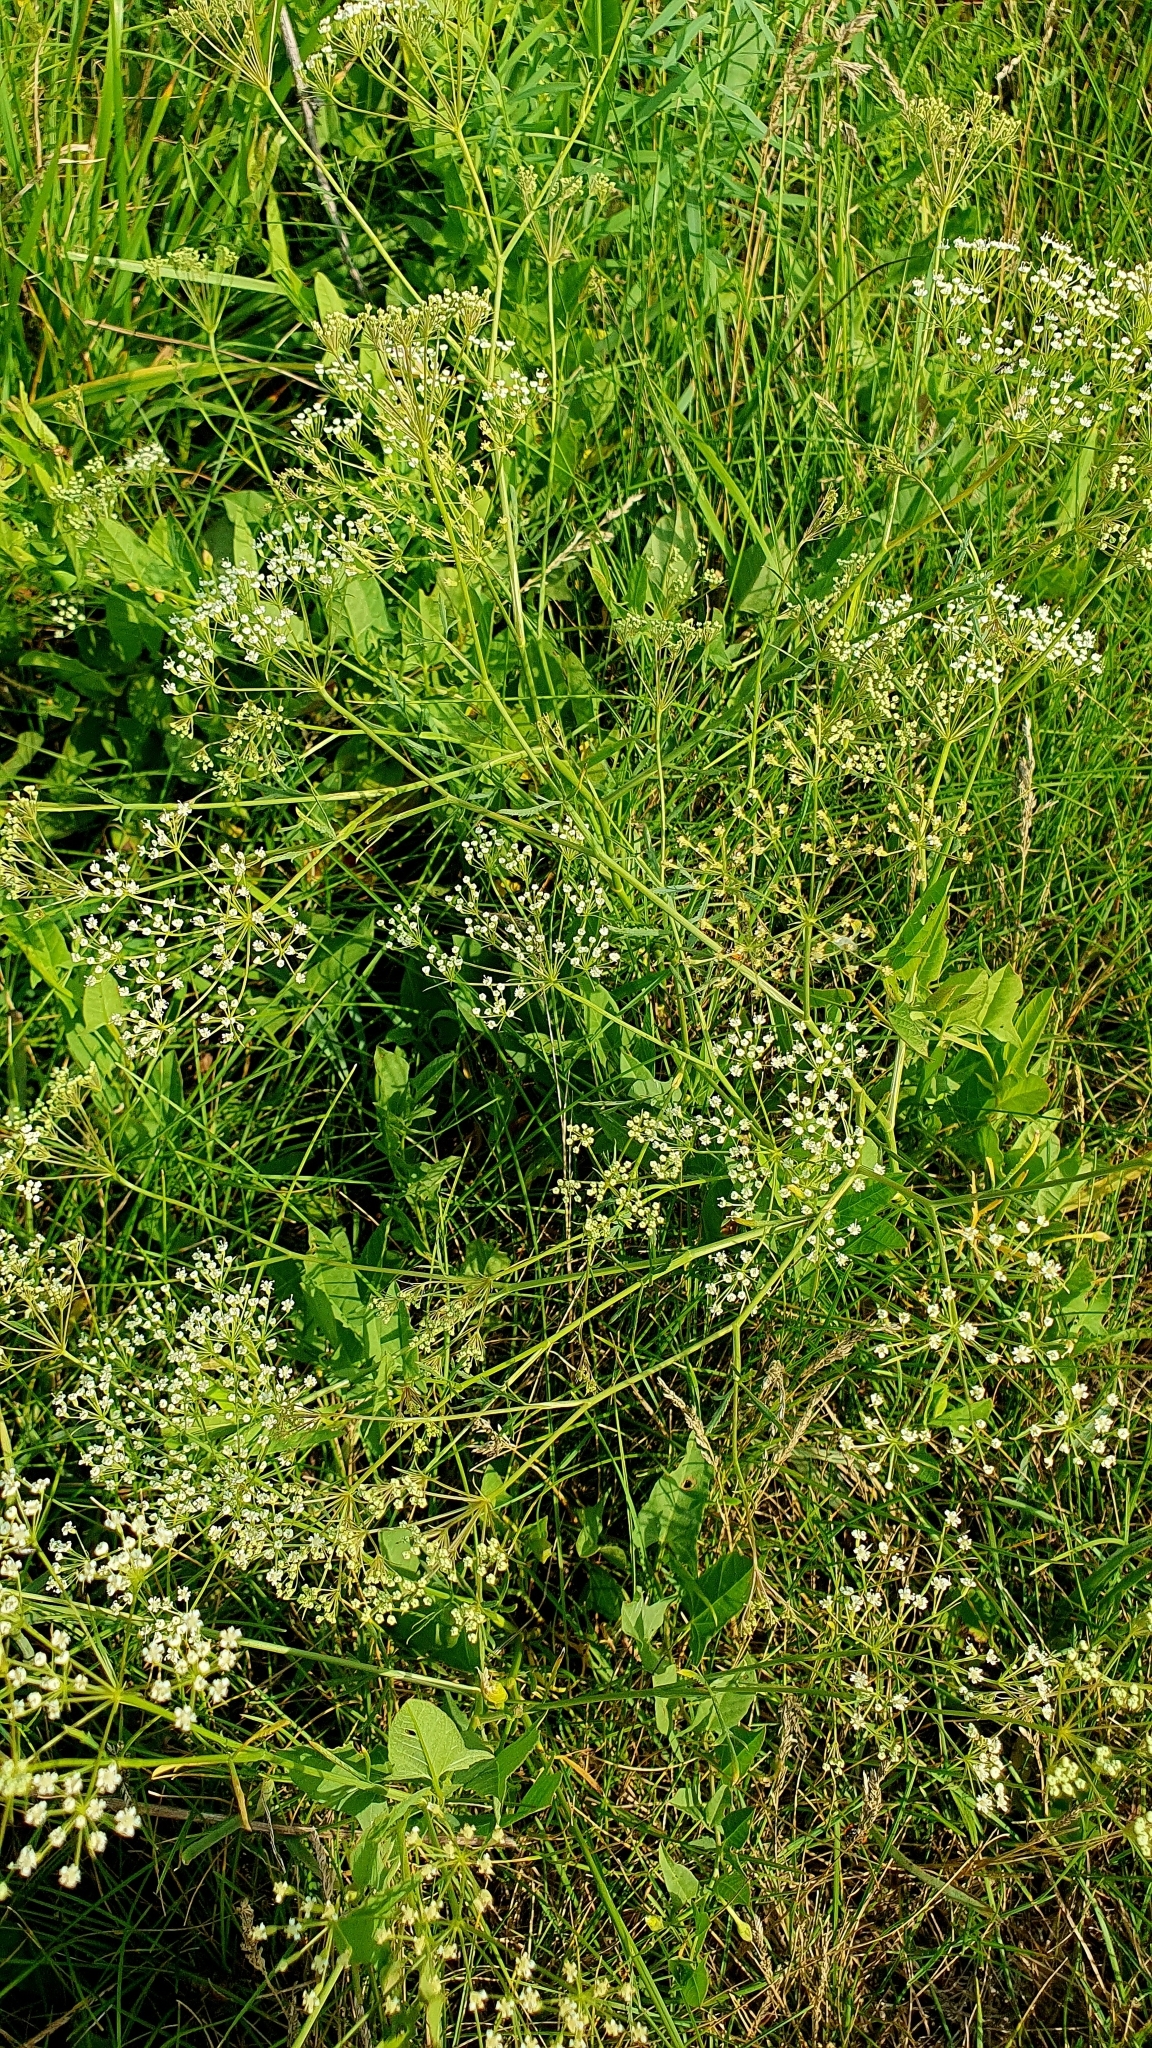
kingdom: Plantae
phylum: Tracheophyta
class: Magnoliopsida
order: Apiales
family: Apiaceae
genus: Falcaria
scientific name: Falcaria vulgaris
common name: Longleaf
